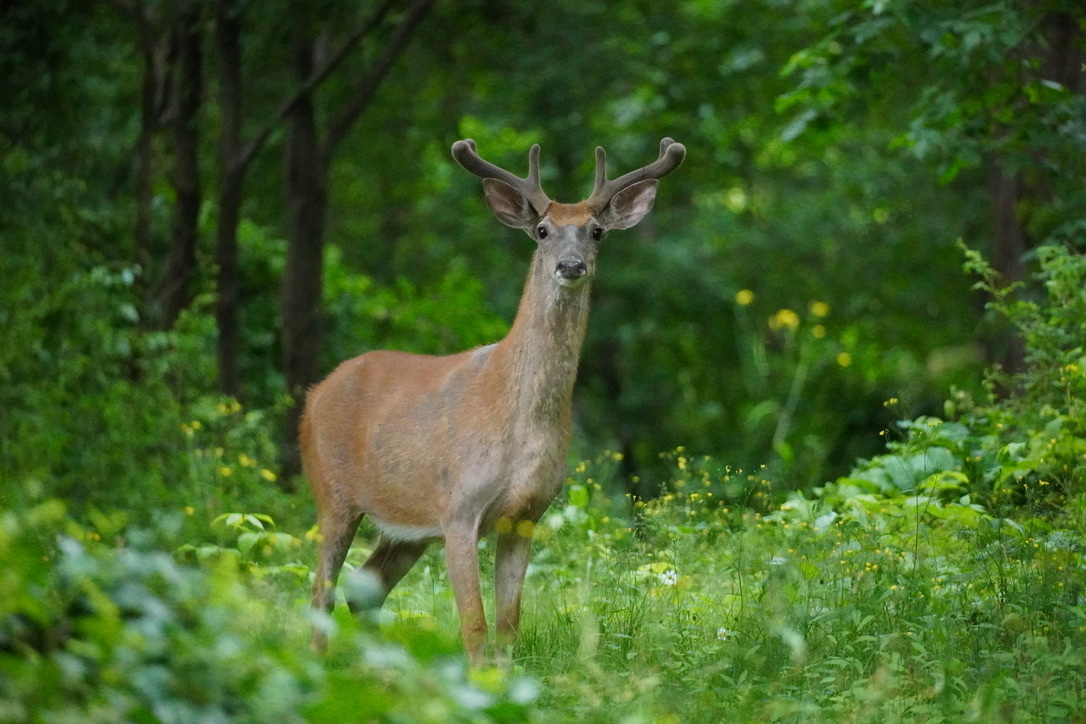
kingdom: Animalia
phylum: Chordata
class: Mammalia
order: Artiodactyla
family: Cervidae
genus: Odocoileus
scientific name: Odocoileus virginianus
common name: White-tailed deer
